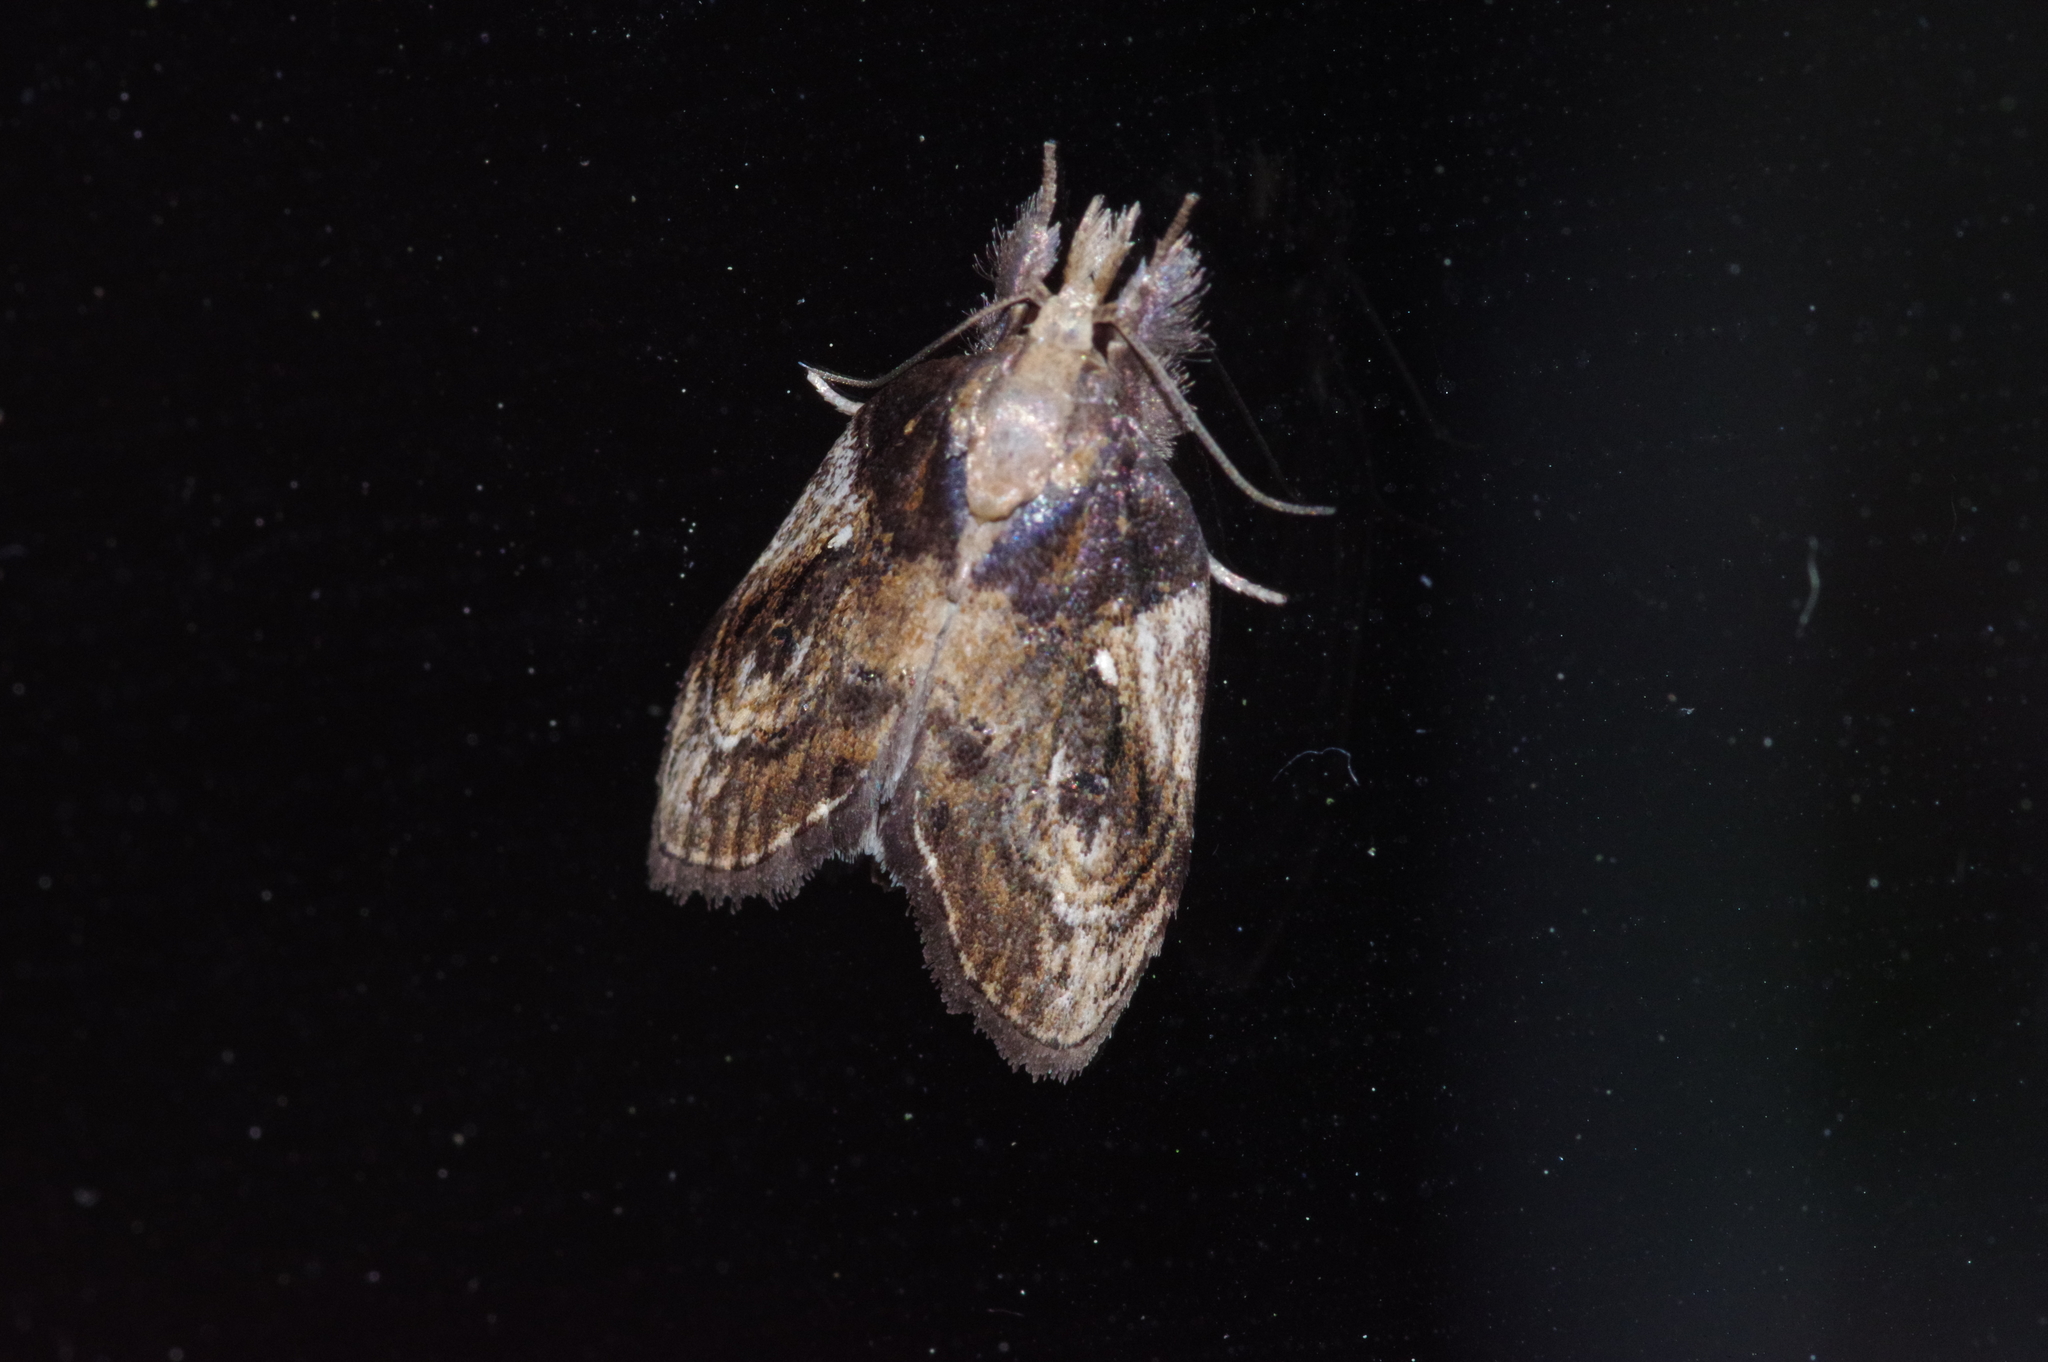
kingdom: Animalia
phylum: Arthropoda
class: Insecta
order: Lepidoptera
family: Nolidae
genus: Selepa
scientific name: Selepa molybdea
